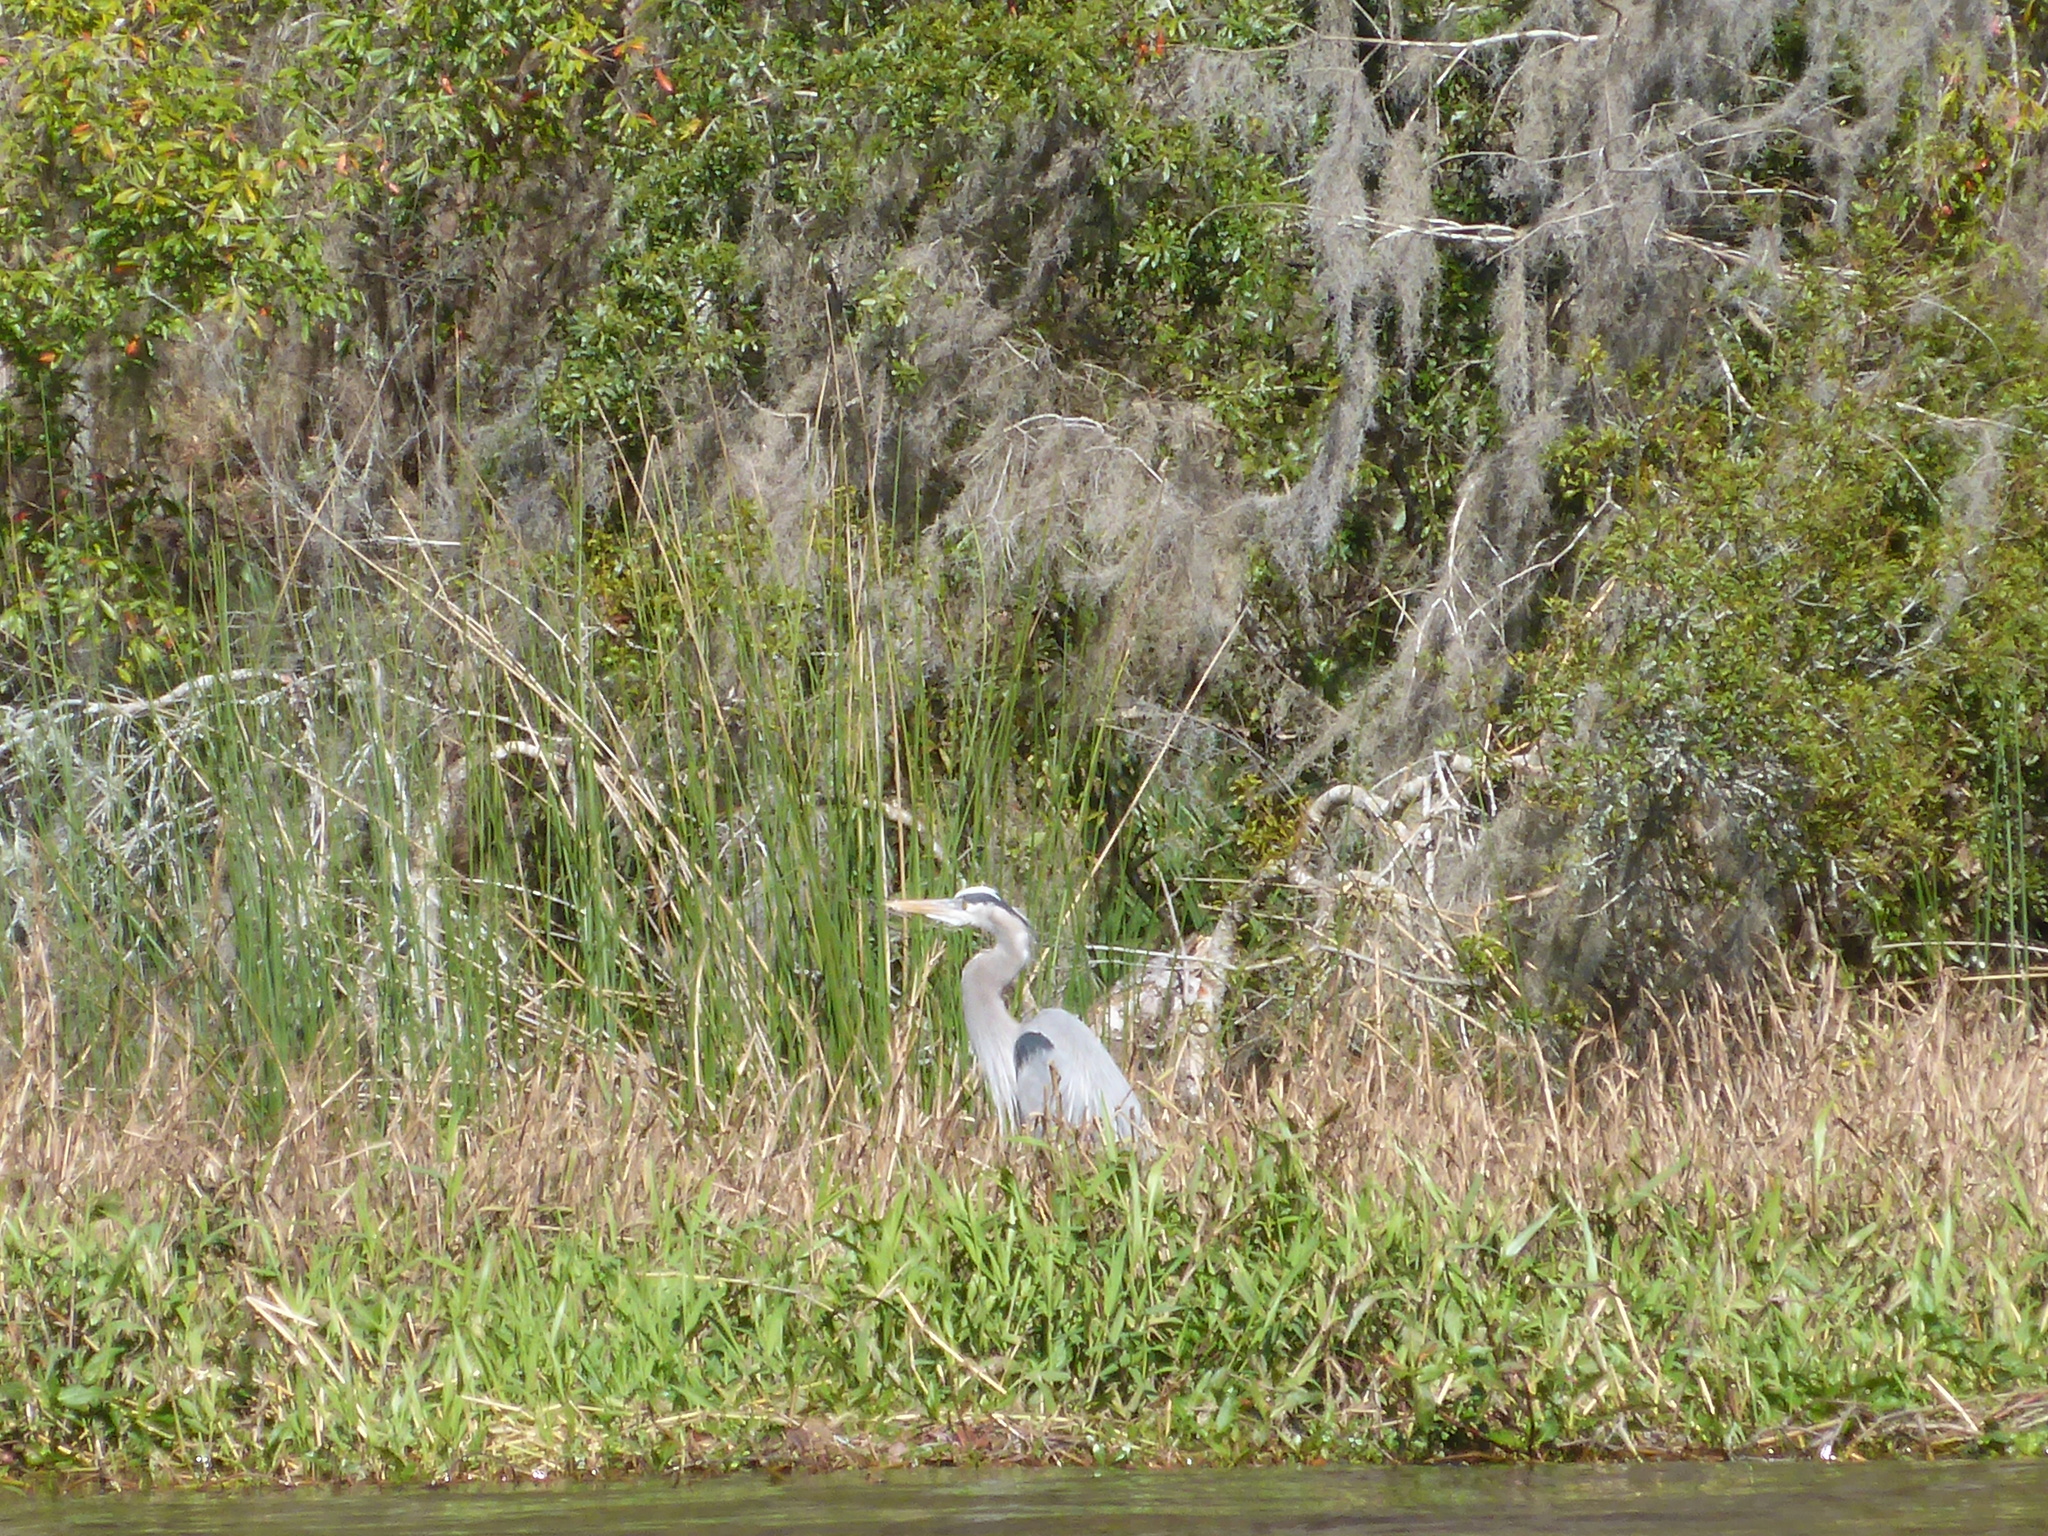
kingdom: Animalia
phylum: Chordata
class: Aves
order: Pelecaniformes
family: Ardeidae
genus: Ardea
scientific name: Ardea herodias
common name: Great blue heron
